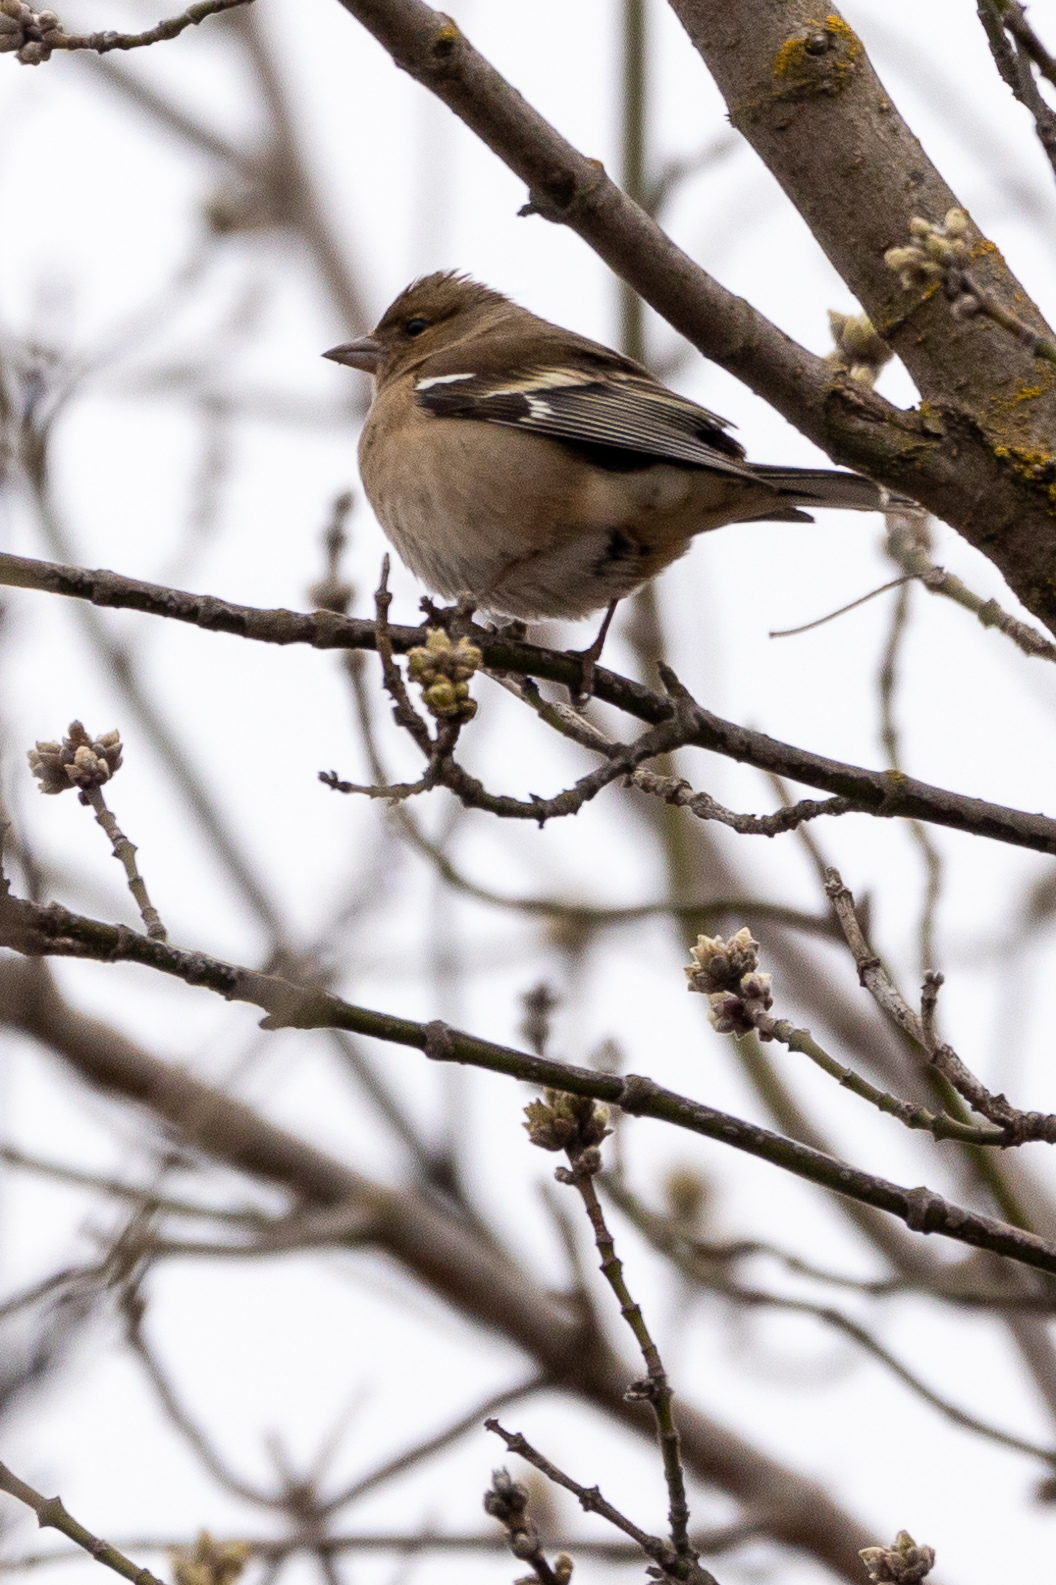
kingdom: Animalia
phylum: Chordata
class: Aves
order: Passeriformes
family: Fringillidae
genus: Fringilla
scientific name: Fringilla coelebs
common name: Common chaffinch
